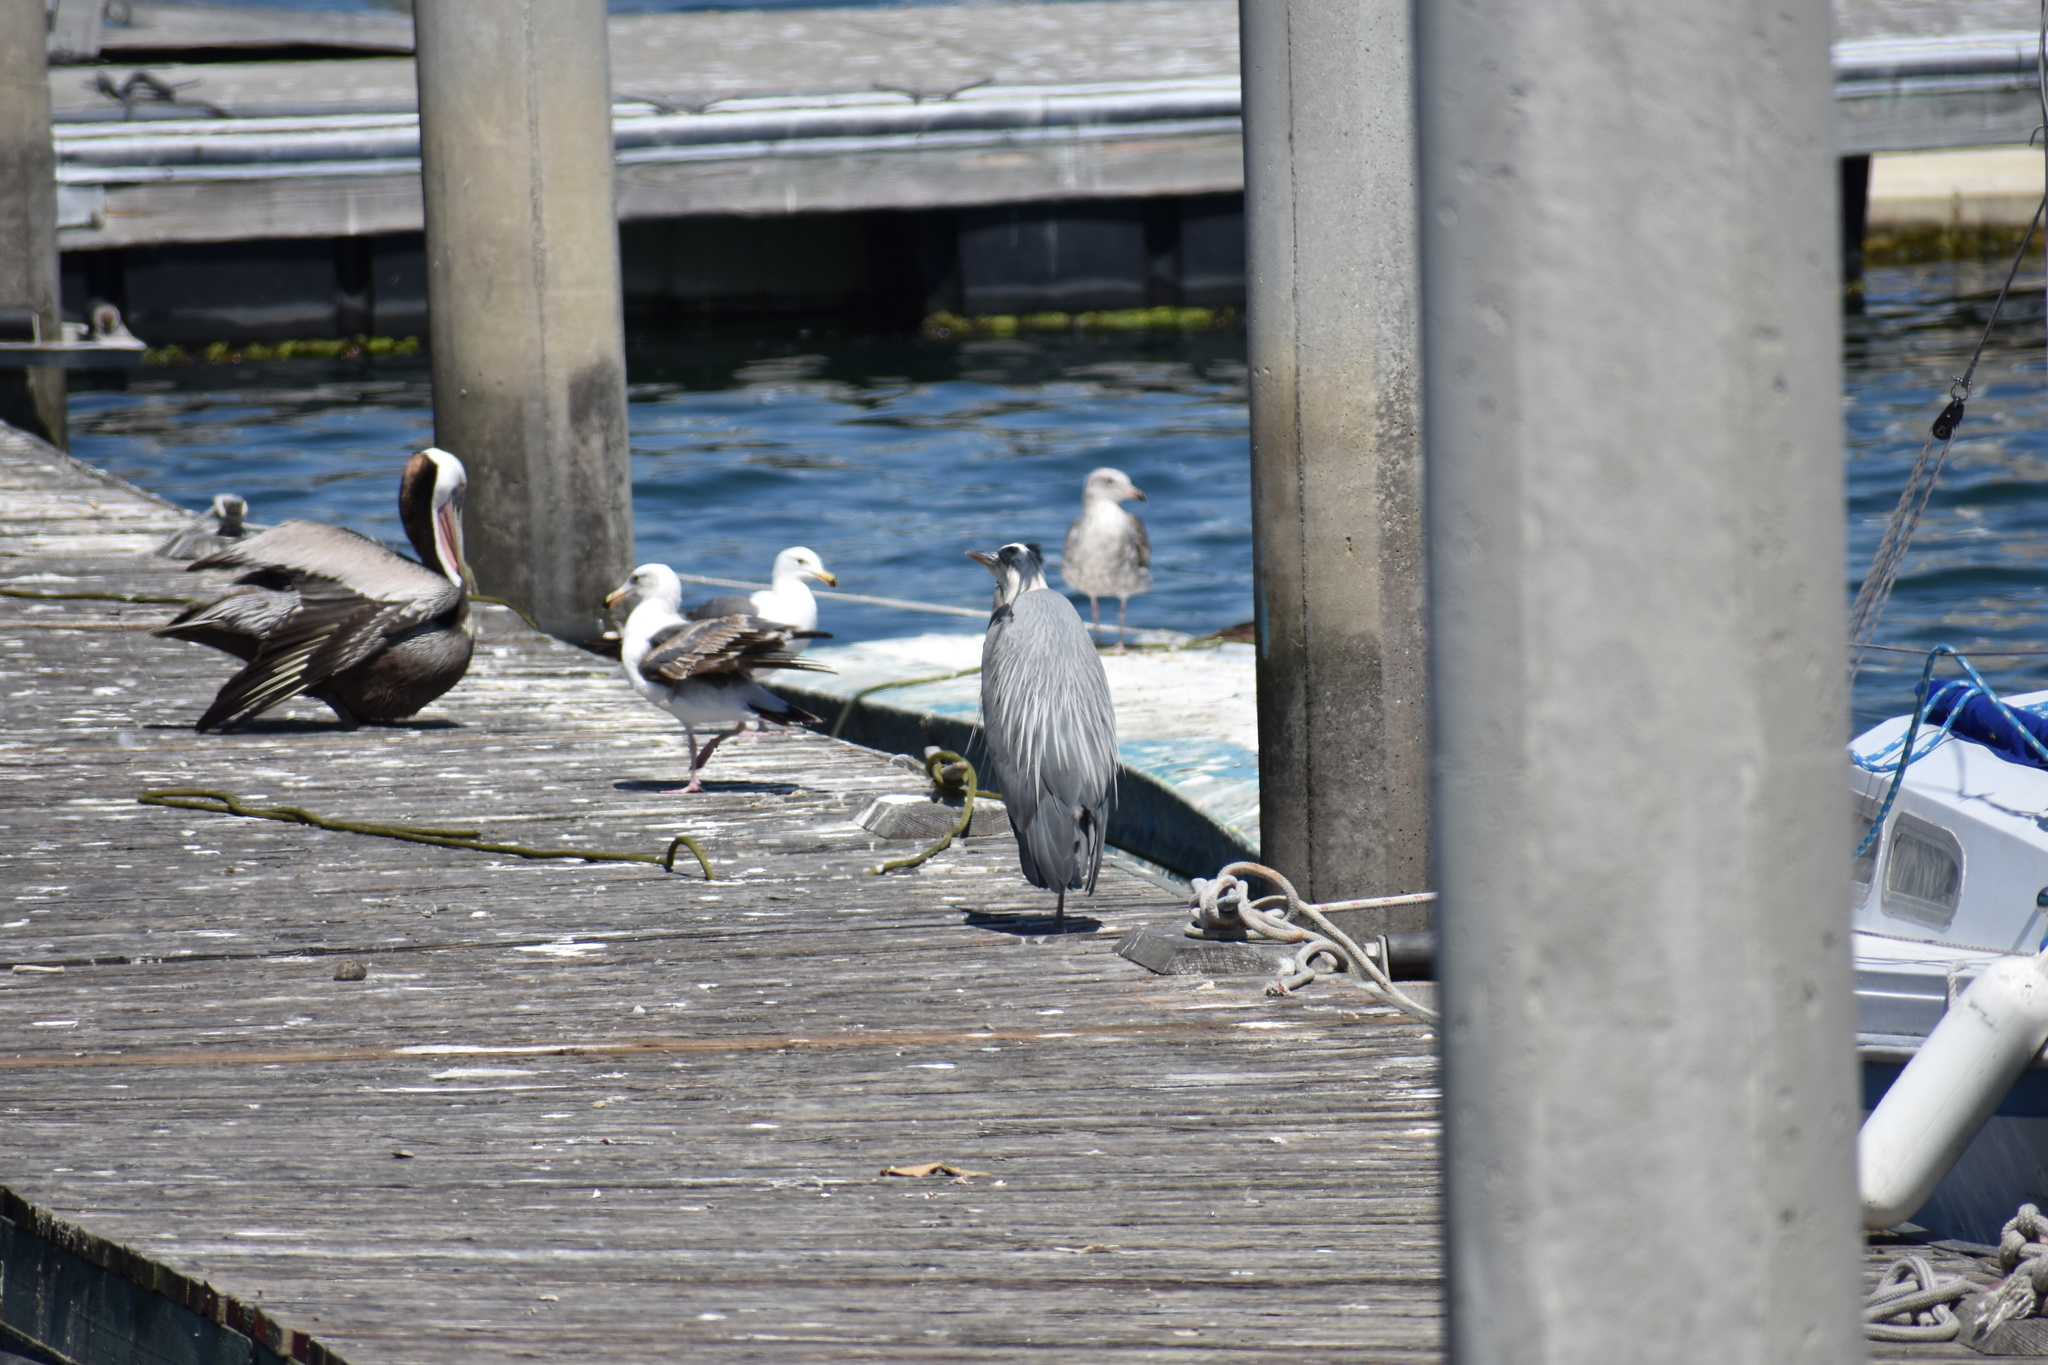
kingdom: Animalia
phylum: Chordata
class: Aves
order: Pelecaniformes
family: Ardeidae
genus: Ardea
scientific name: Ardea herodias
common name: Great blue heron
